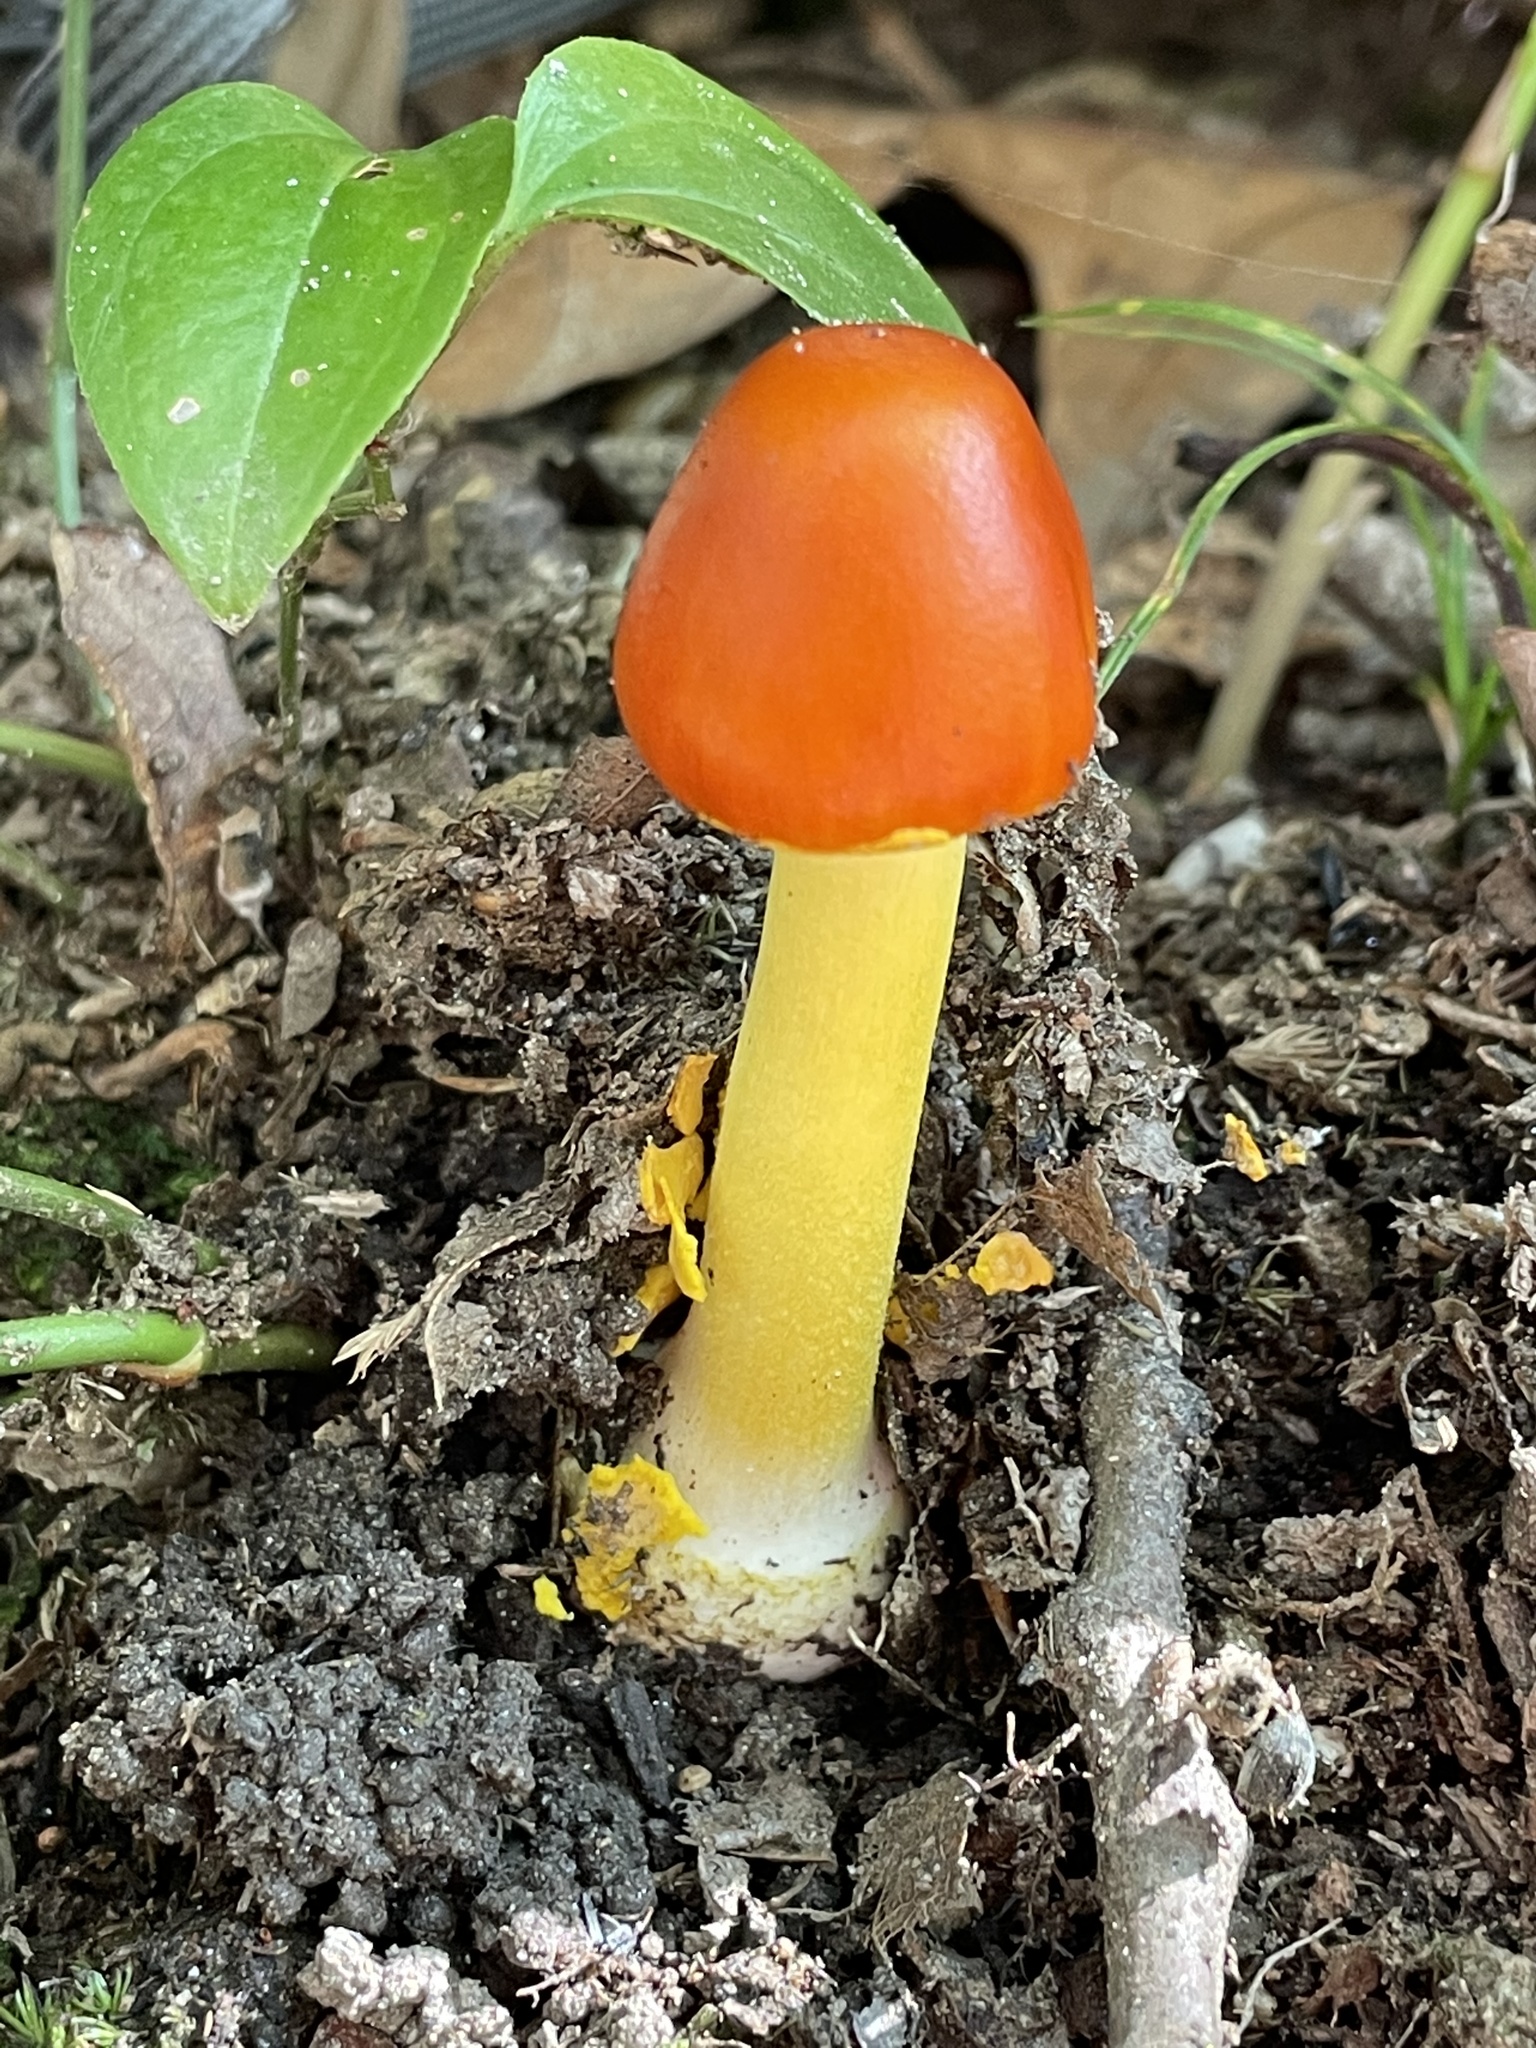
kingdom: Fungi
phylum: Basidiomycota
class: Agaricomycetes
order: Agaricales
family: Amanitaceae
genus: Amanita
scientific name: Amanita flavoconia
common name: Yellow patches
